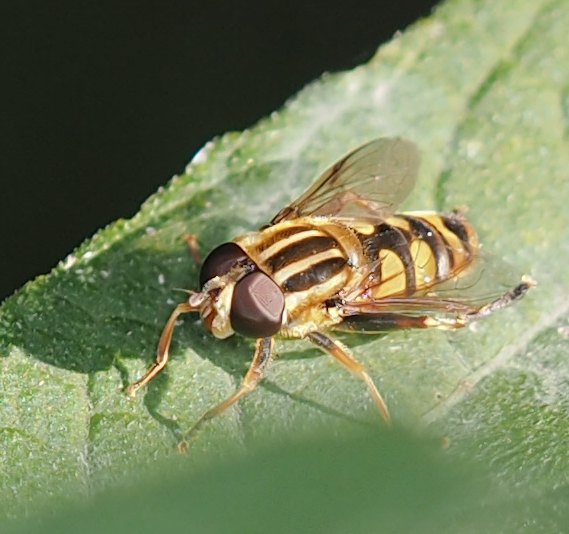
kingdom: Animalia
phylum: Arthropoda
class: Insecta
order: Diptera
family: Syrphidae
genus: Helophilus
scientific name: Helophilus fasciatus
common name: Narrow-headed marsh fly
